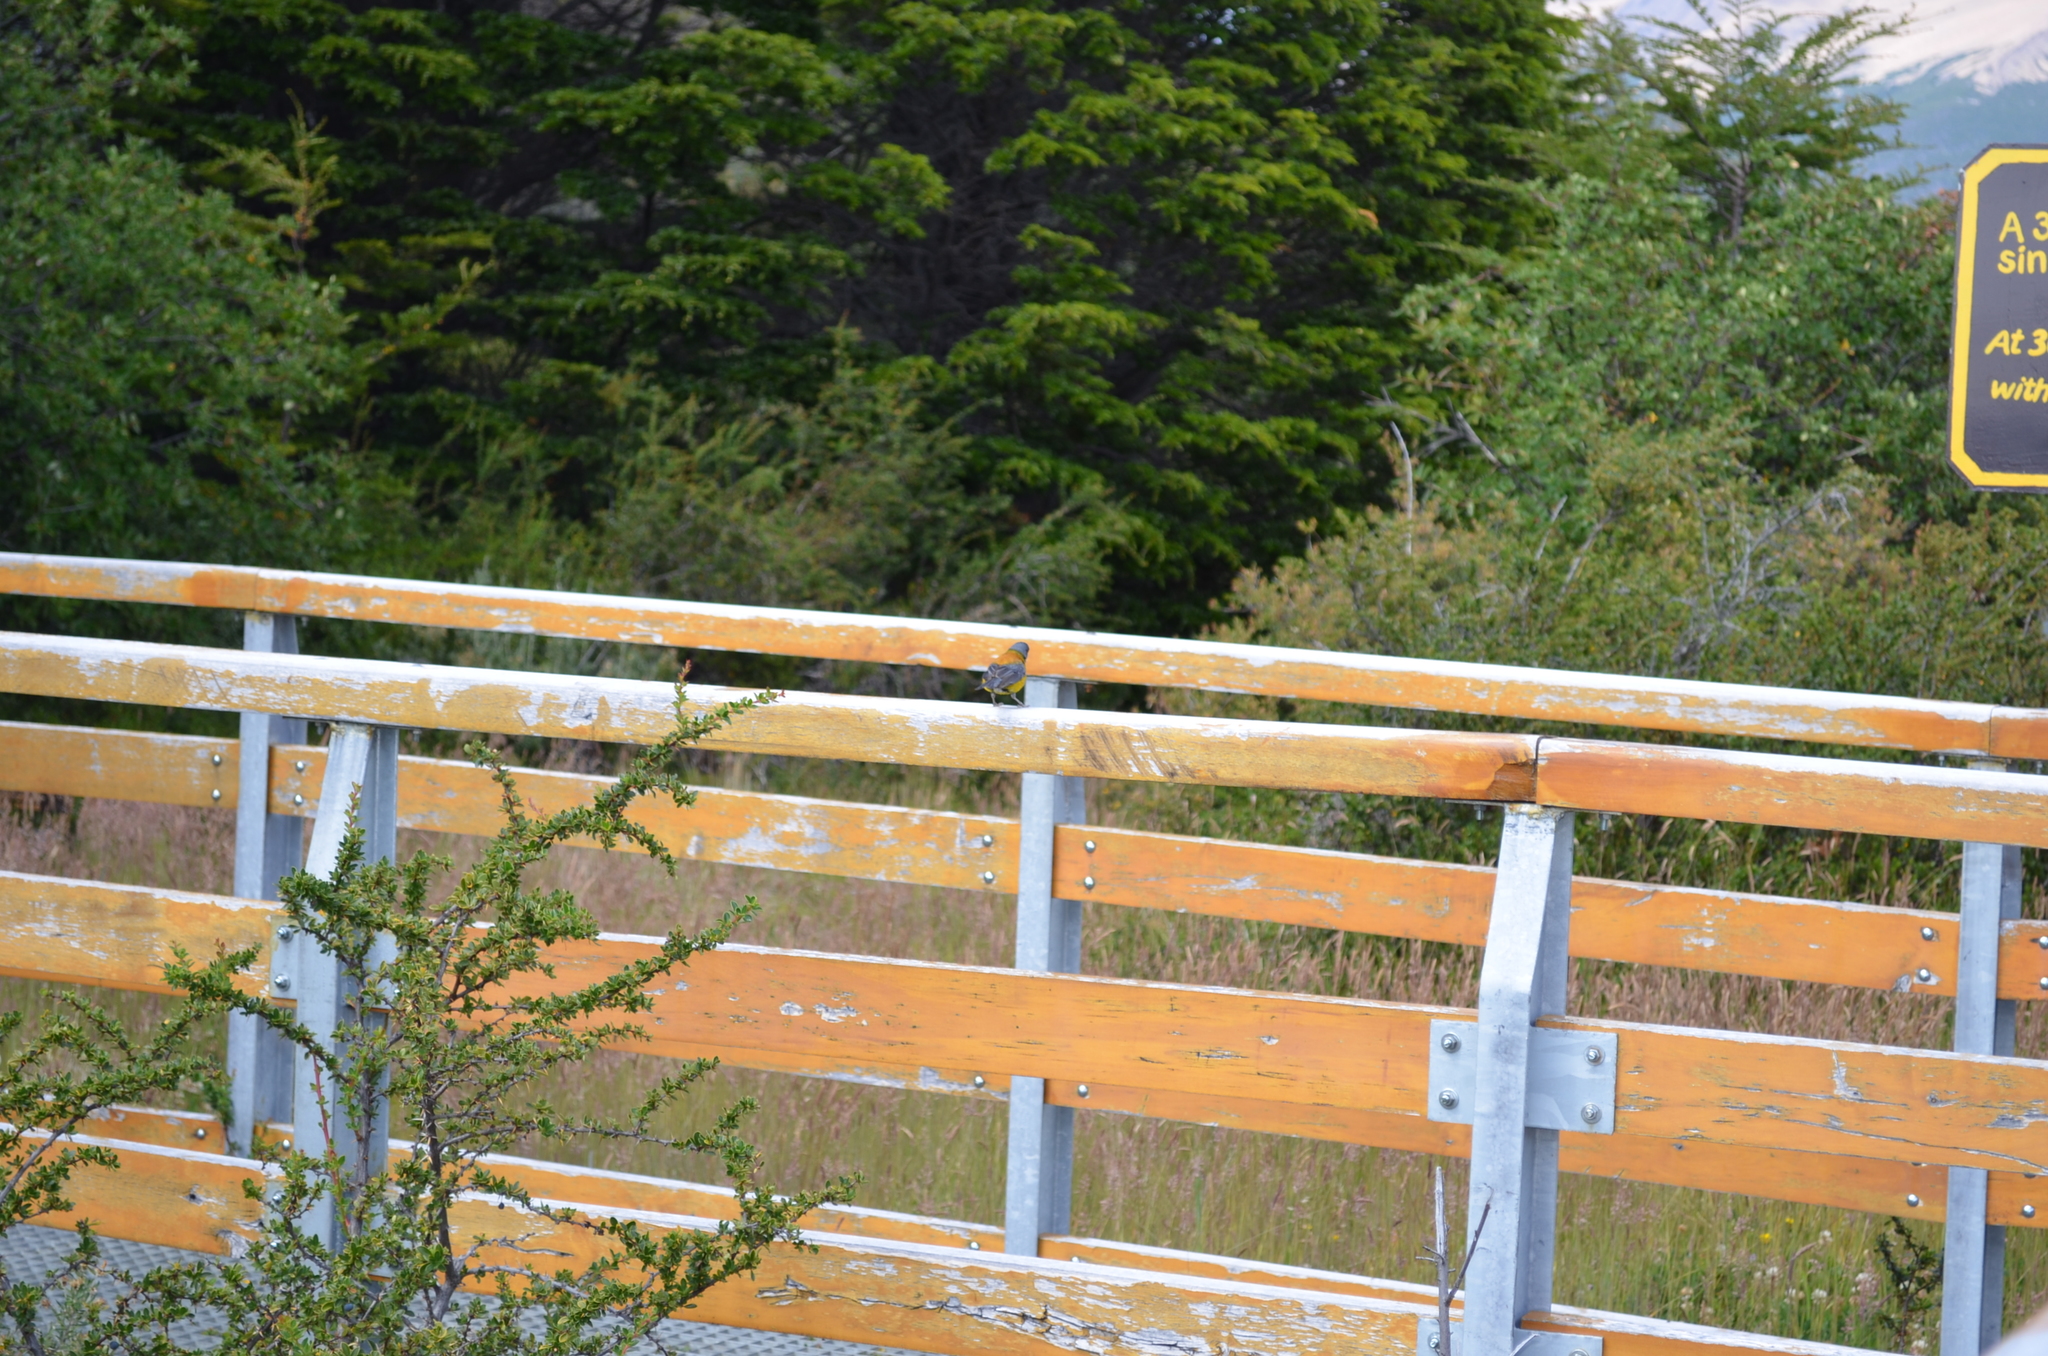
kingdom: Animalia
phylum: Chordata
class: Aves
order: Passeriformes
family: Thraupidae
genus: Phrygilus
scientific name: Phrygilus patagonicus
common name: Patagonian sierra finch
